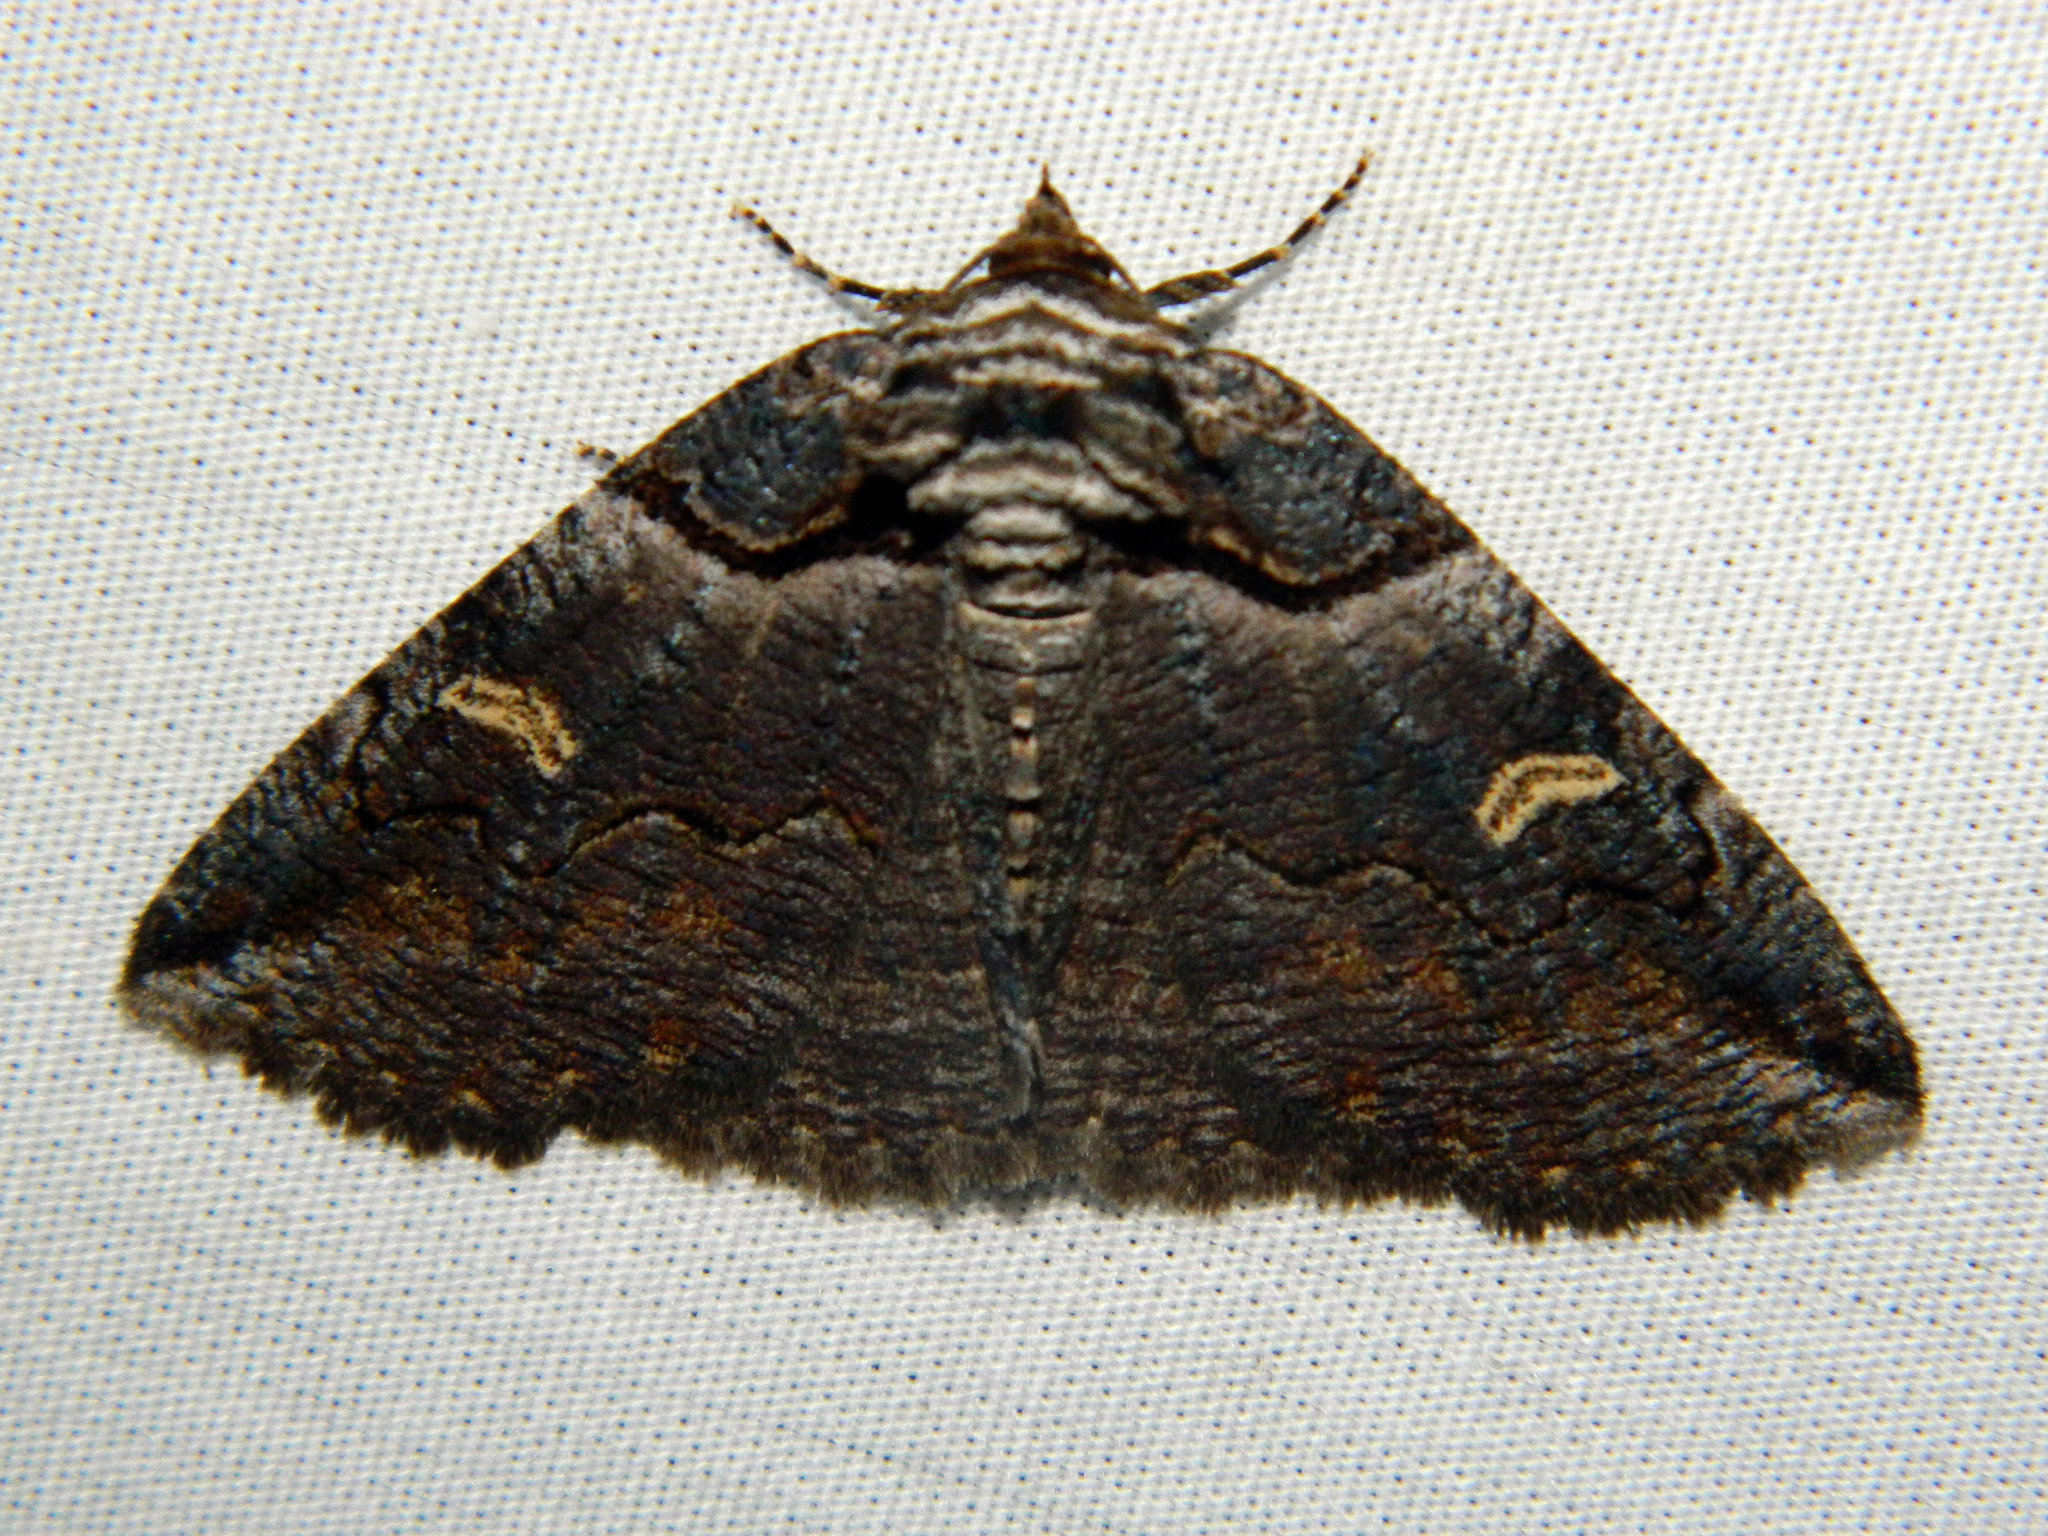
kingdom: Animalia
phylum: Arthropoda
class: Insecta
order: Lepidoptera
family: Erebidae
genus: Zale
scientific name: Zale intenta
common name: Intent zale moth
